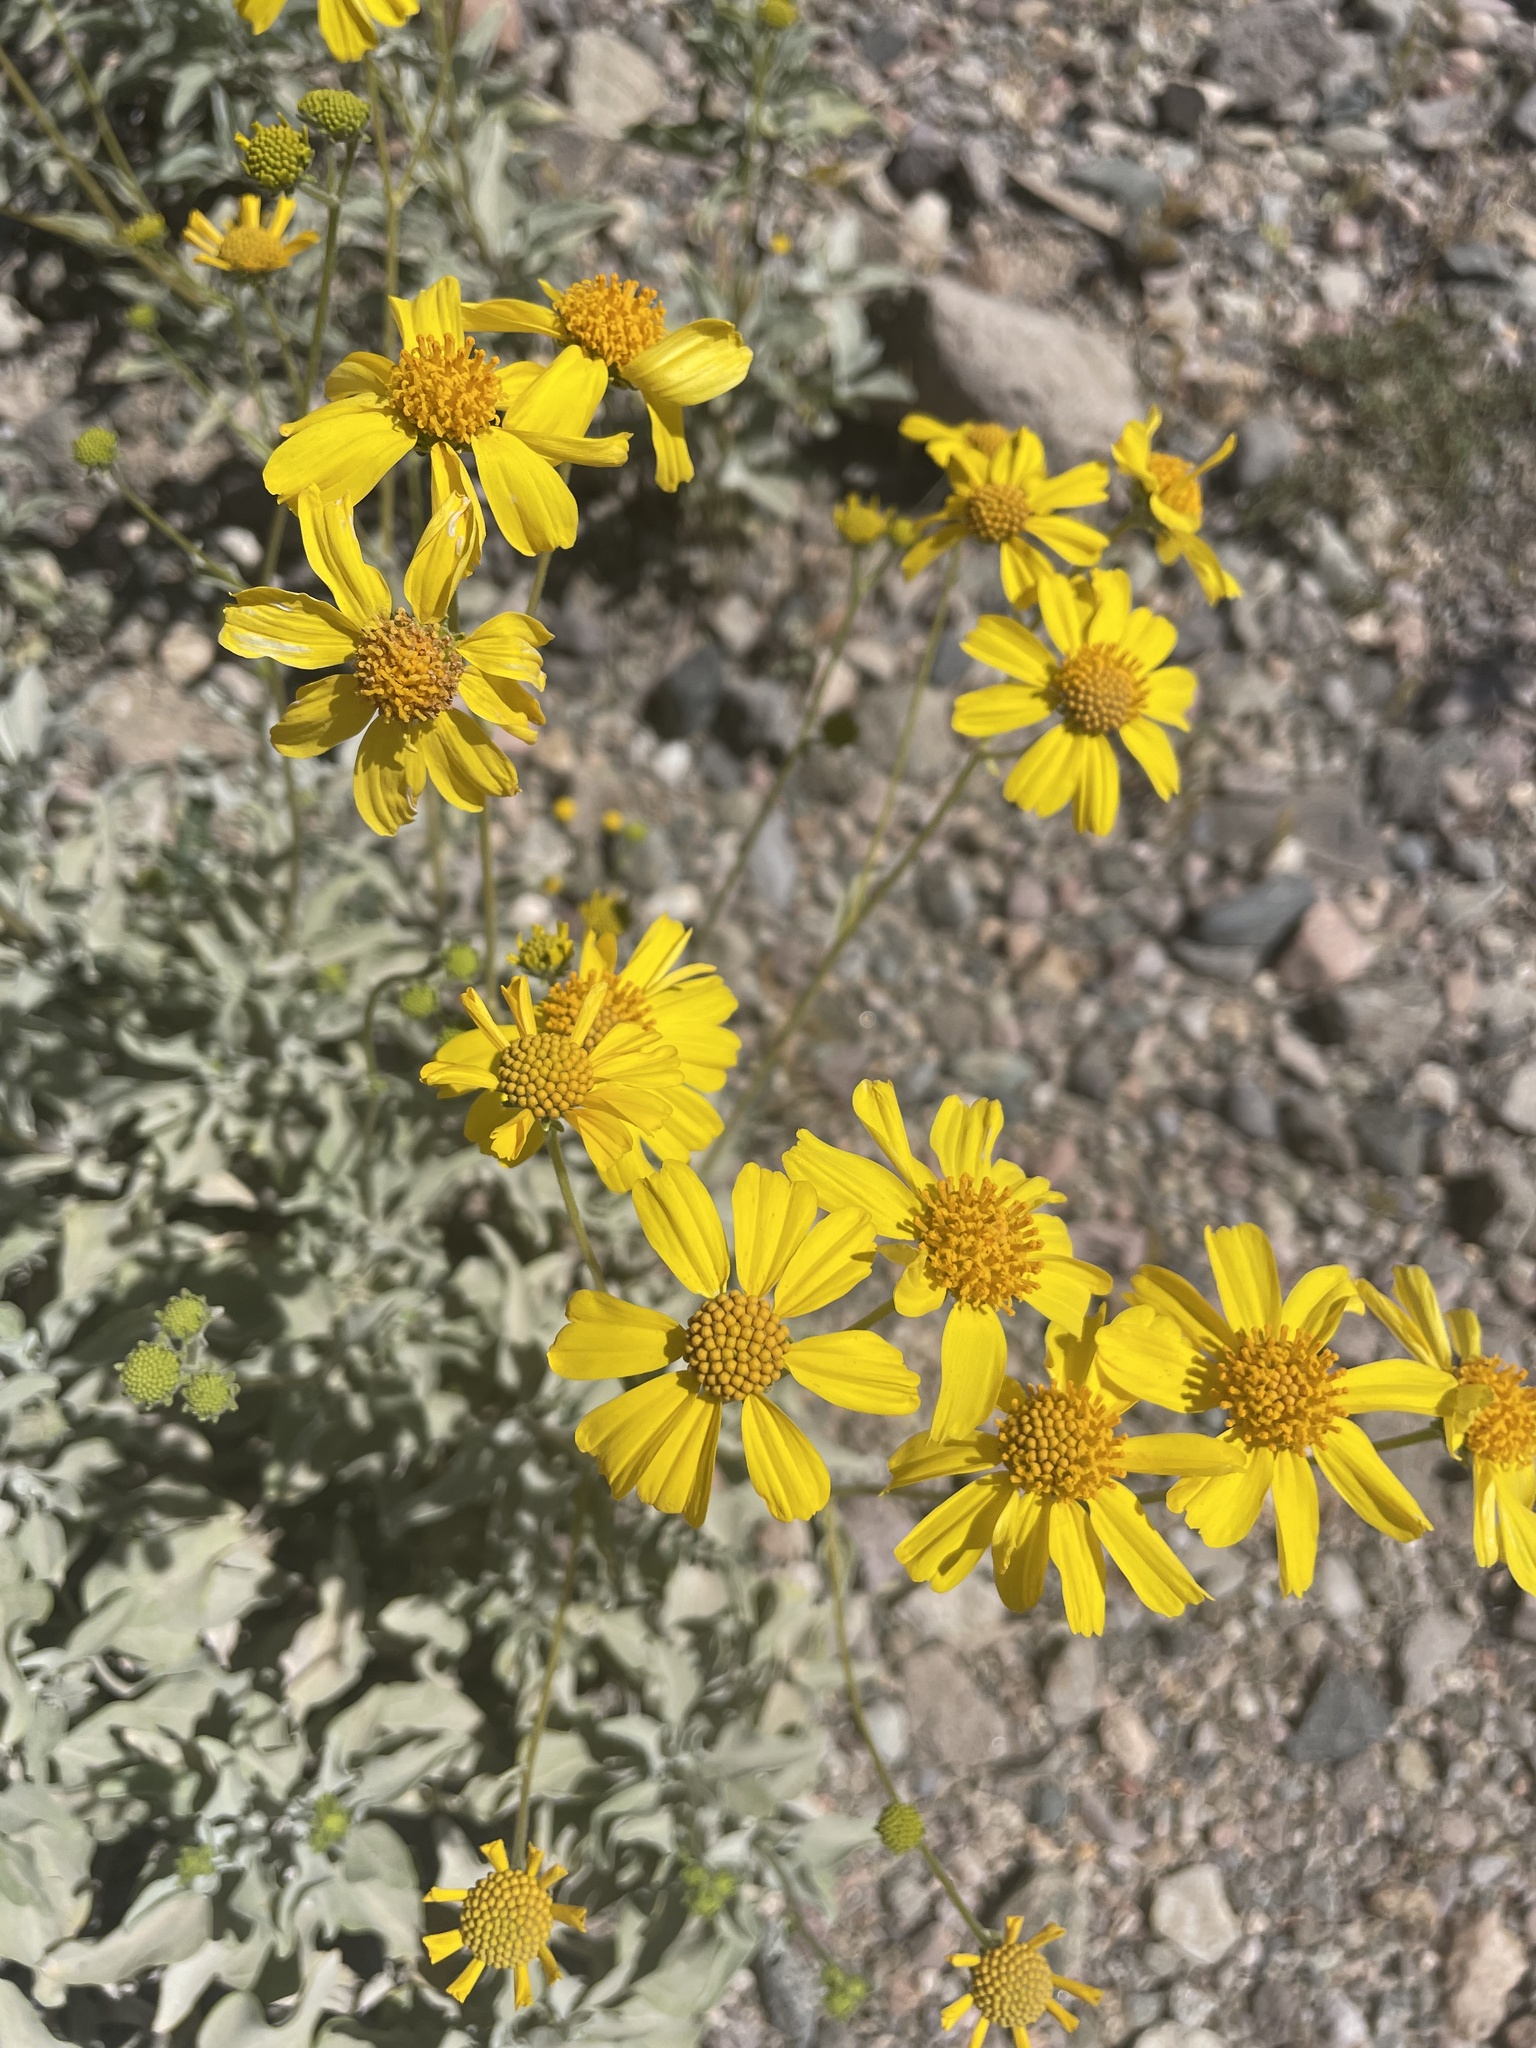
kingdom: Plantae
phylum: Tracheophyta
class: Magnoliopsida
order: Asterales
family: Asteraceae
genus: Encelia
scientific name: Encelia farinosa
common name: Brittlebush
